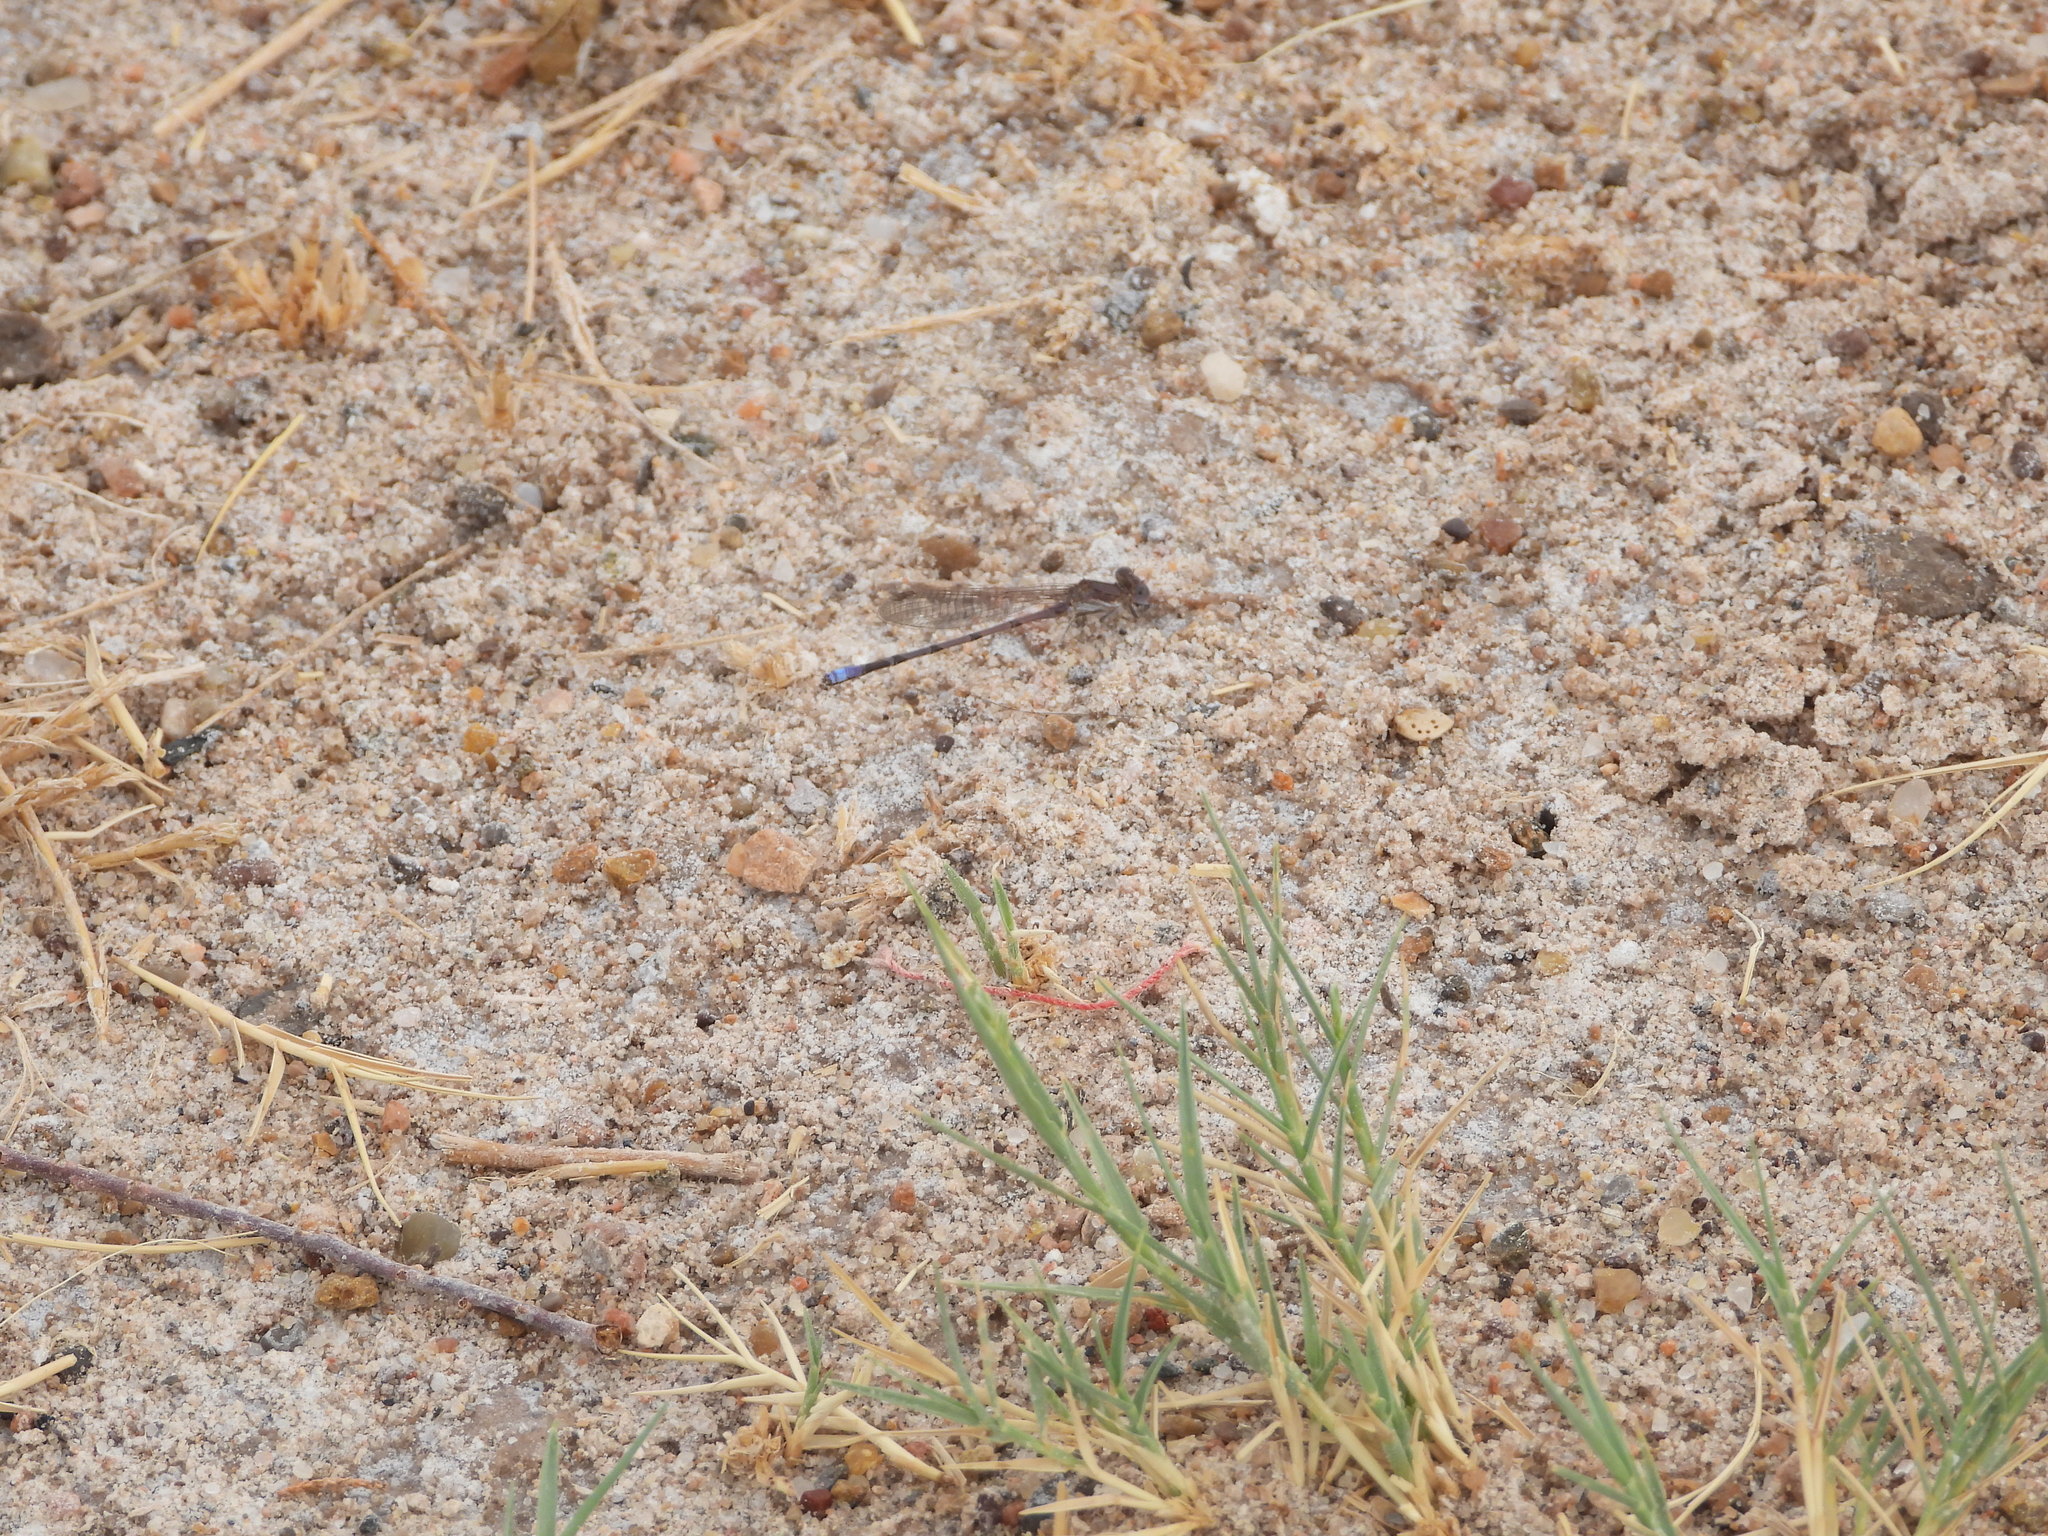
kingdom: Animalia
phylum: Arthropoda
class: Insecta
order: Odonata
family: Coenagrionidae
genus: Argia
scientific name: Argia fumipennis
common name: Variable dancer
